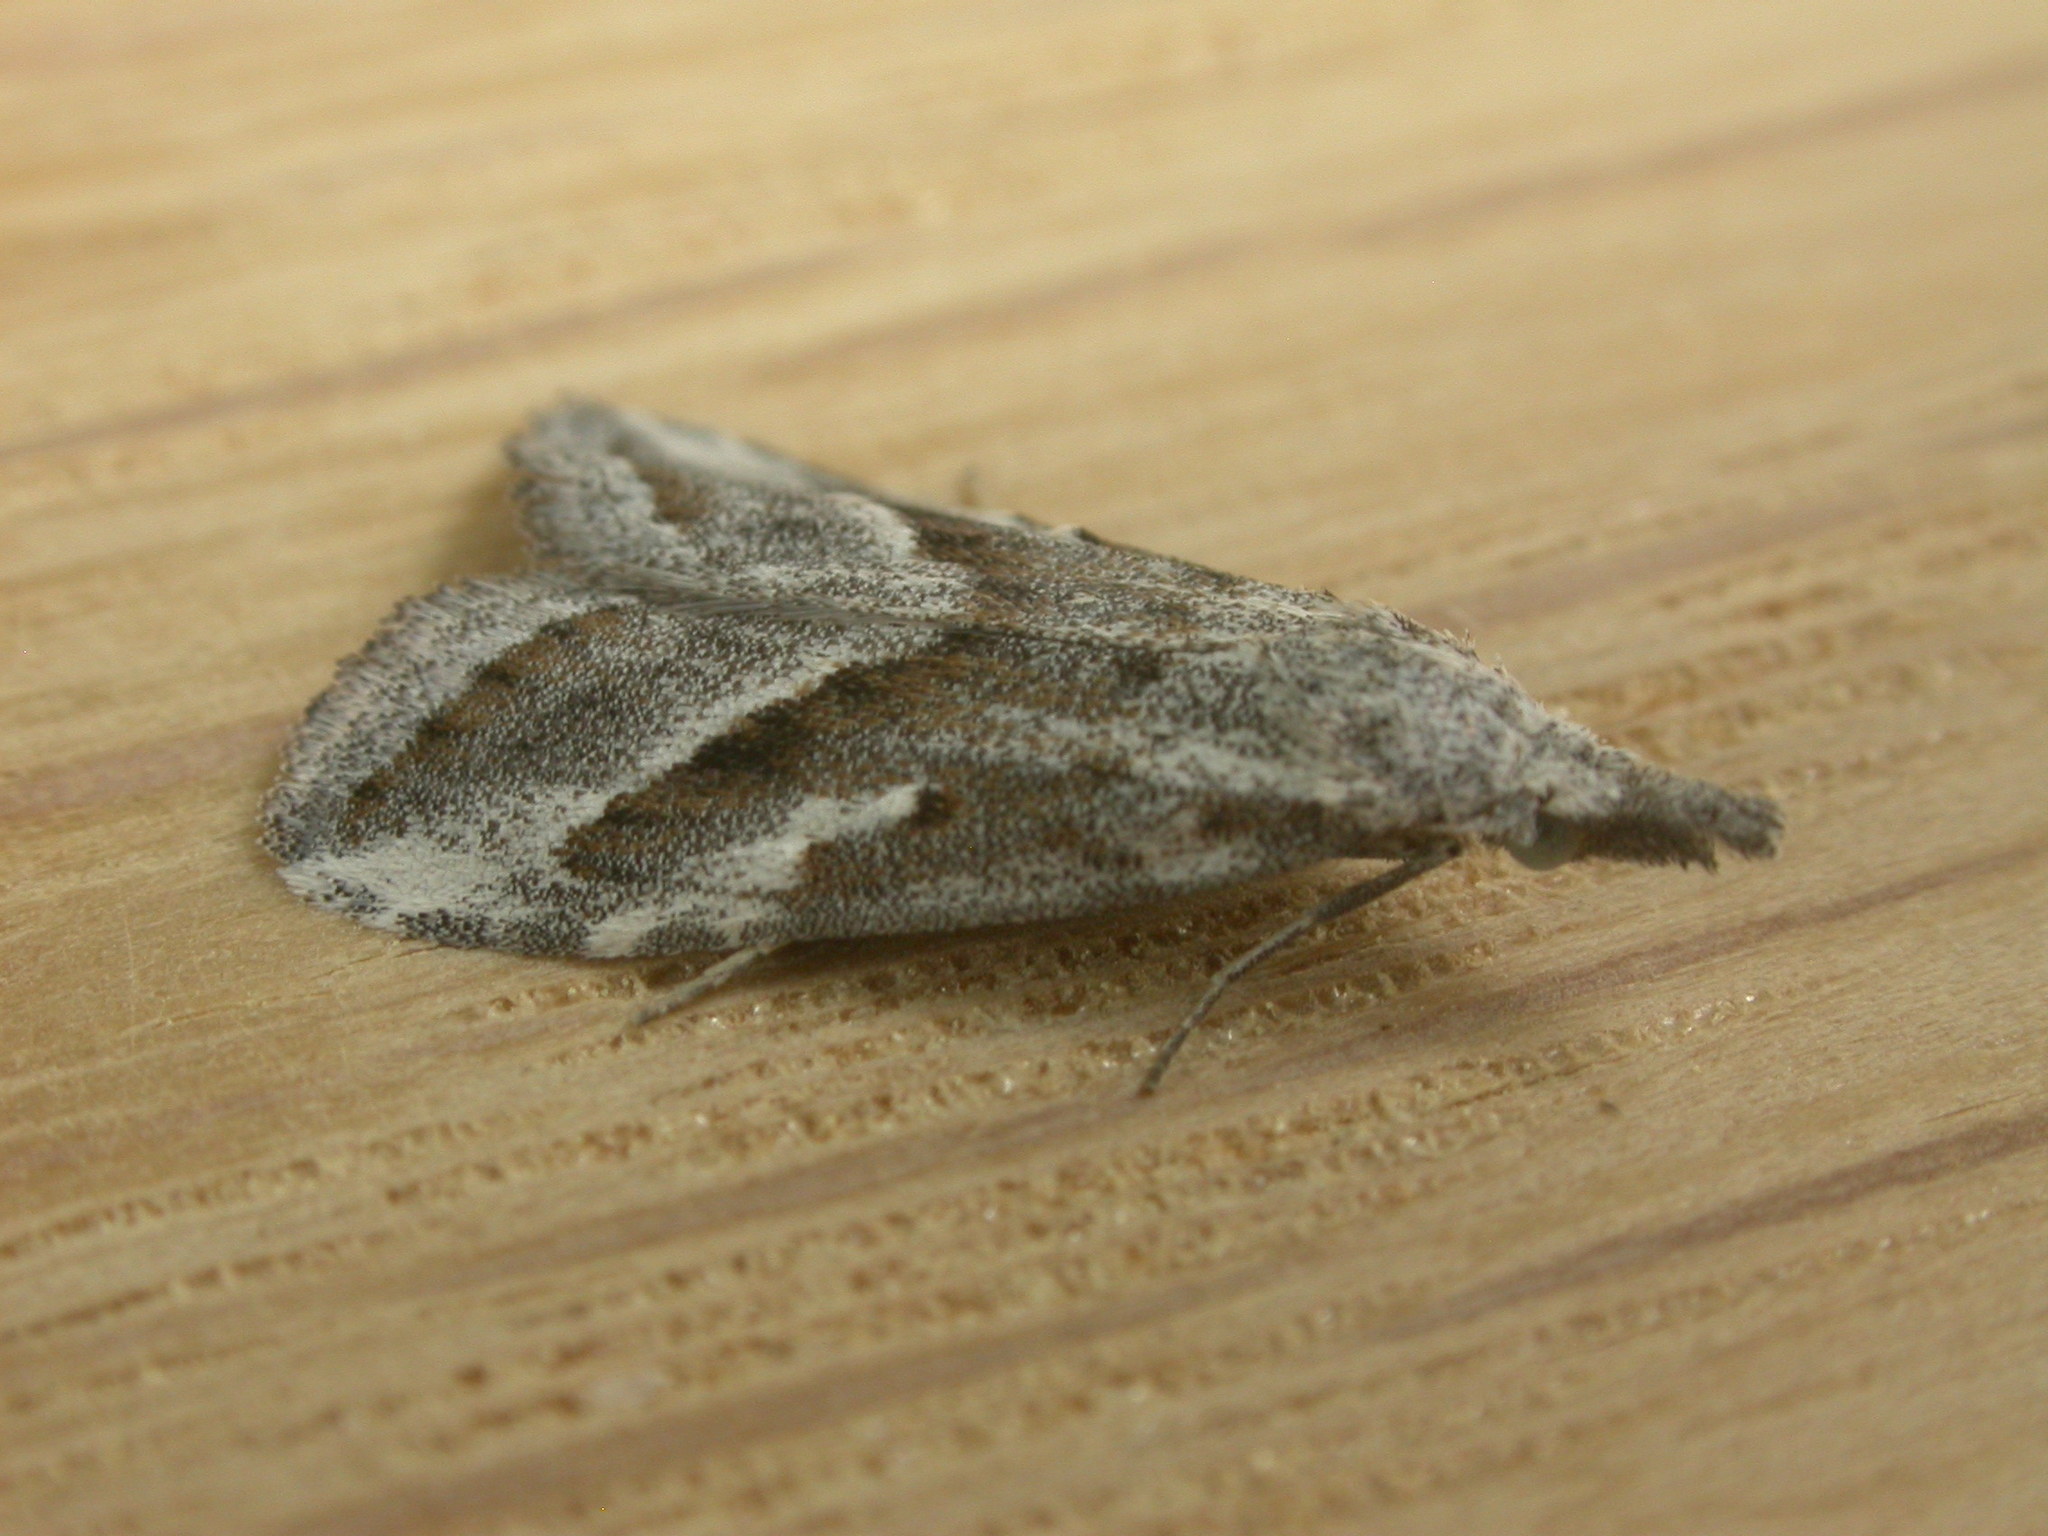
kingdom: Animalia
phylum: Arthropoda
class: Insecta
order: Lepidoptera
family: Nolidae
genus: Nola
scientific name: Nola paromoea
